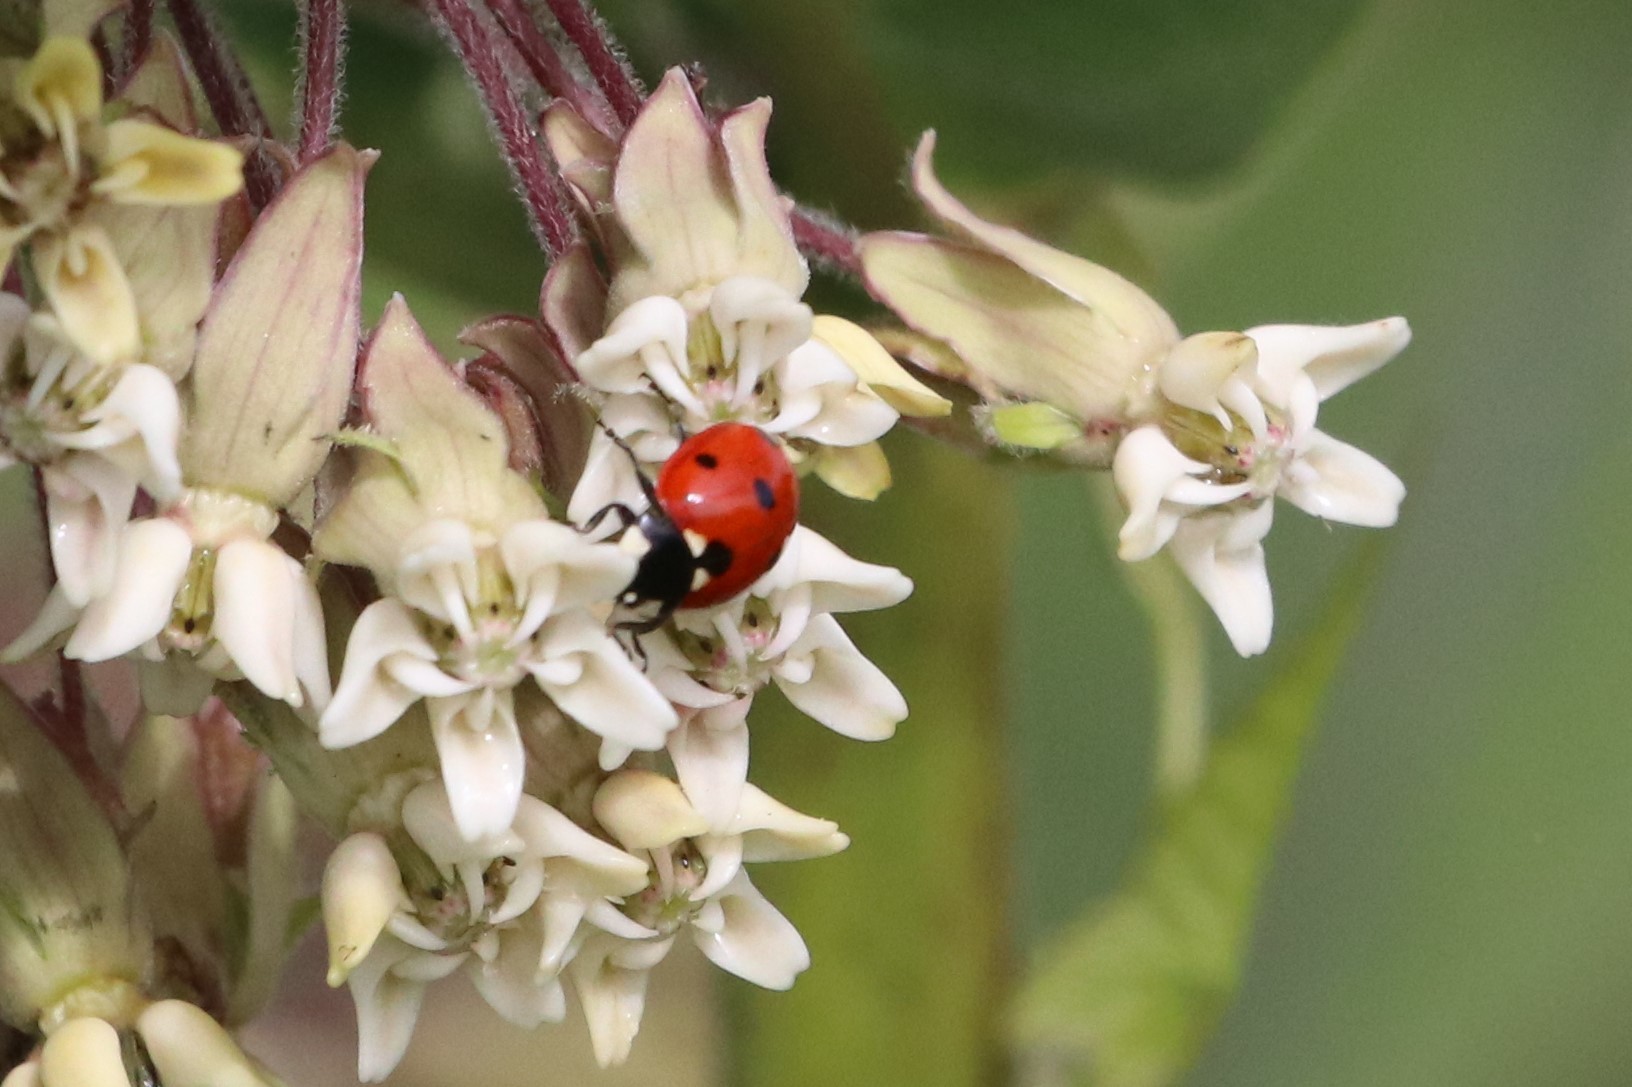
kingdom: Animalia
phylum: Arthropoda
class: Insecta
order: Coleoptera
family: Coccinellidae
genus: Coccinella
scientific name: Coccinella septempunctata
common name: Sevenspotted lady beetle
